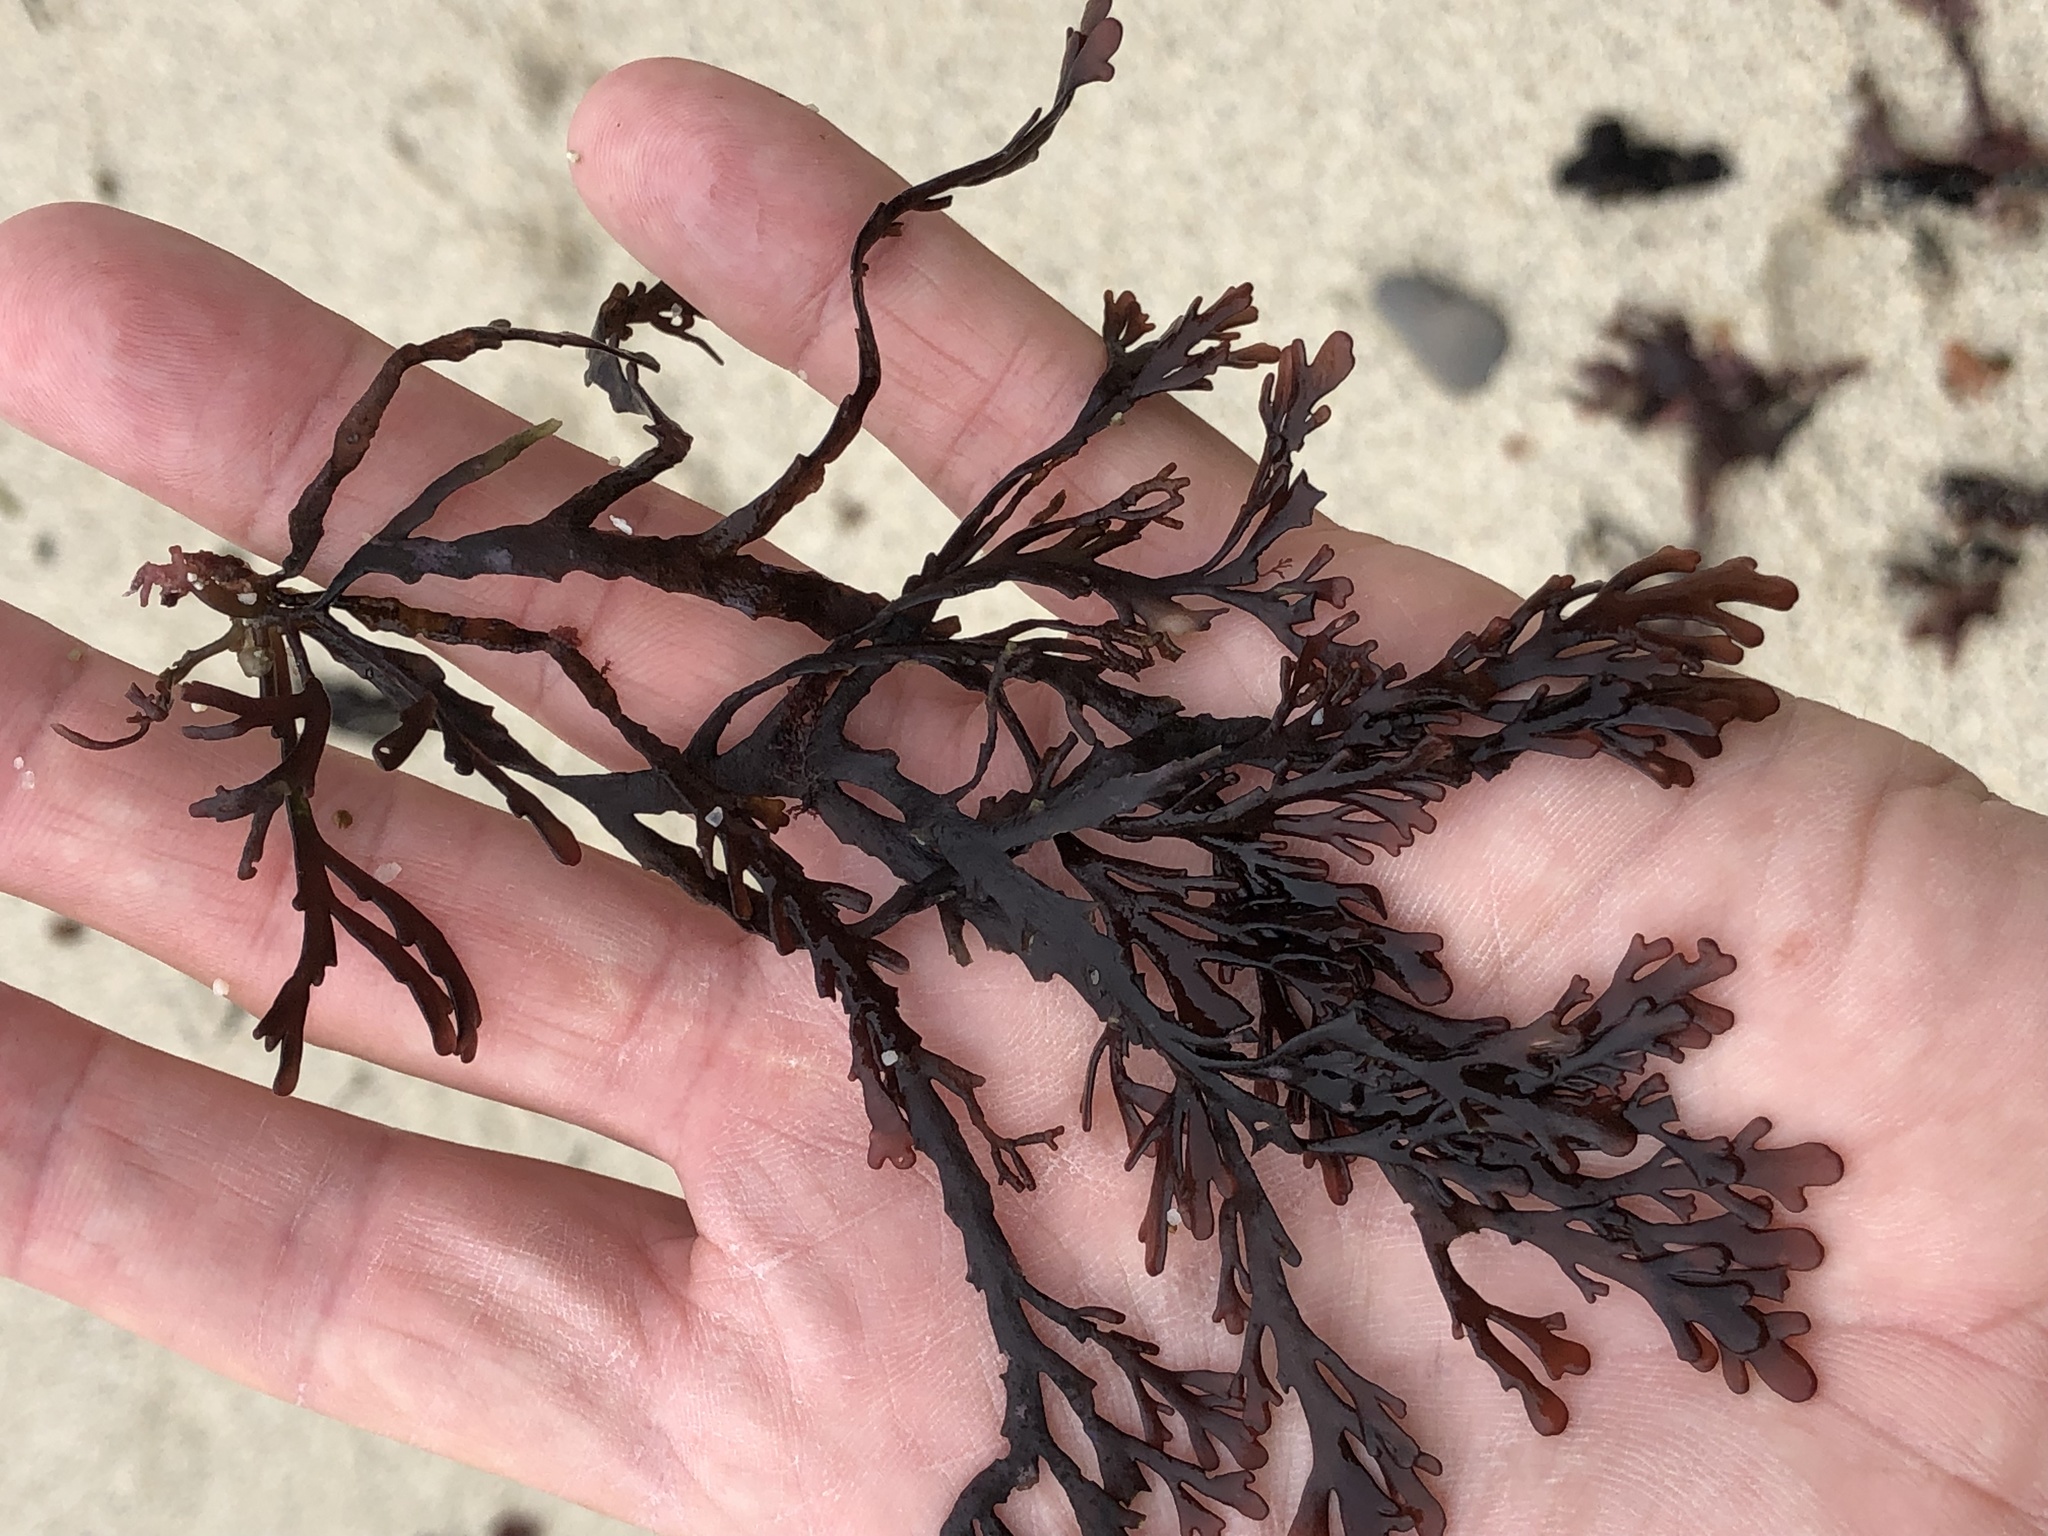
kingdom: Plantae
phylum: Rhodophyta
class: Florideophyceae
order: Ceramiales
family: Rhodomelaceae
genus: Osmundea
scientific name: Osmundea spectabilis
